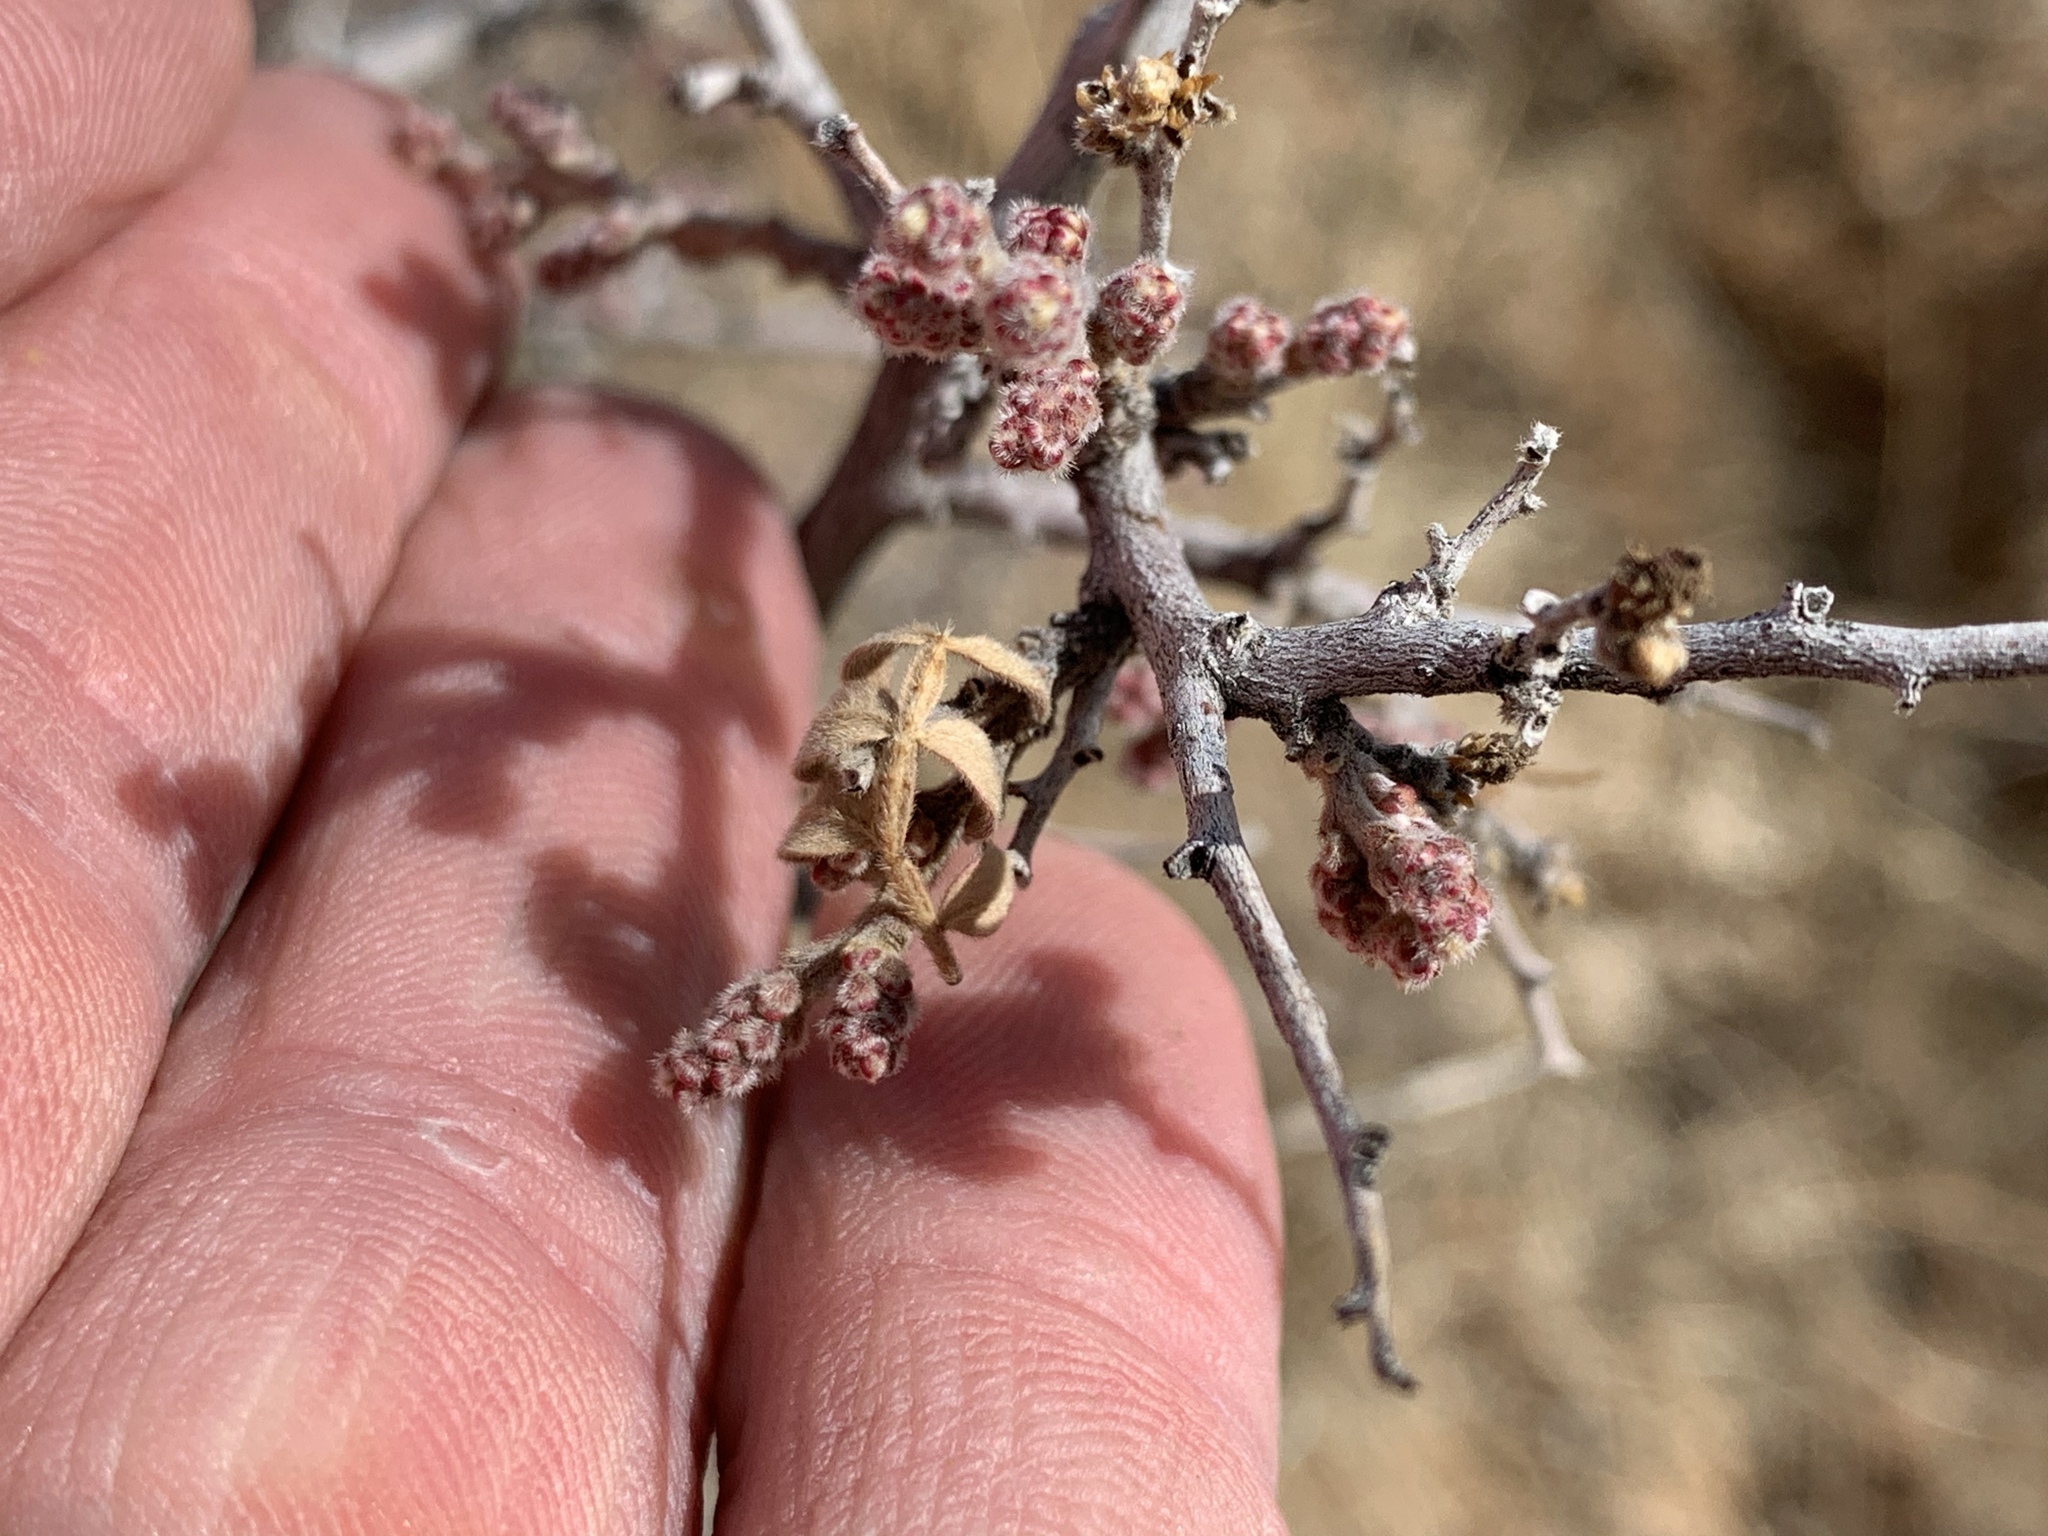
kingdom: Plantae
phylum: Tracheophyta
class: Magnoliopsida
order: Sapindales
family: Anacardiaceae
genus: Rhus
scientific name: Rhus microphylla
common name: Desert sumac
